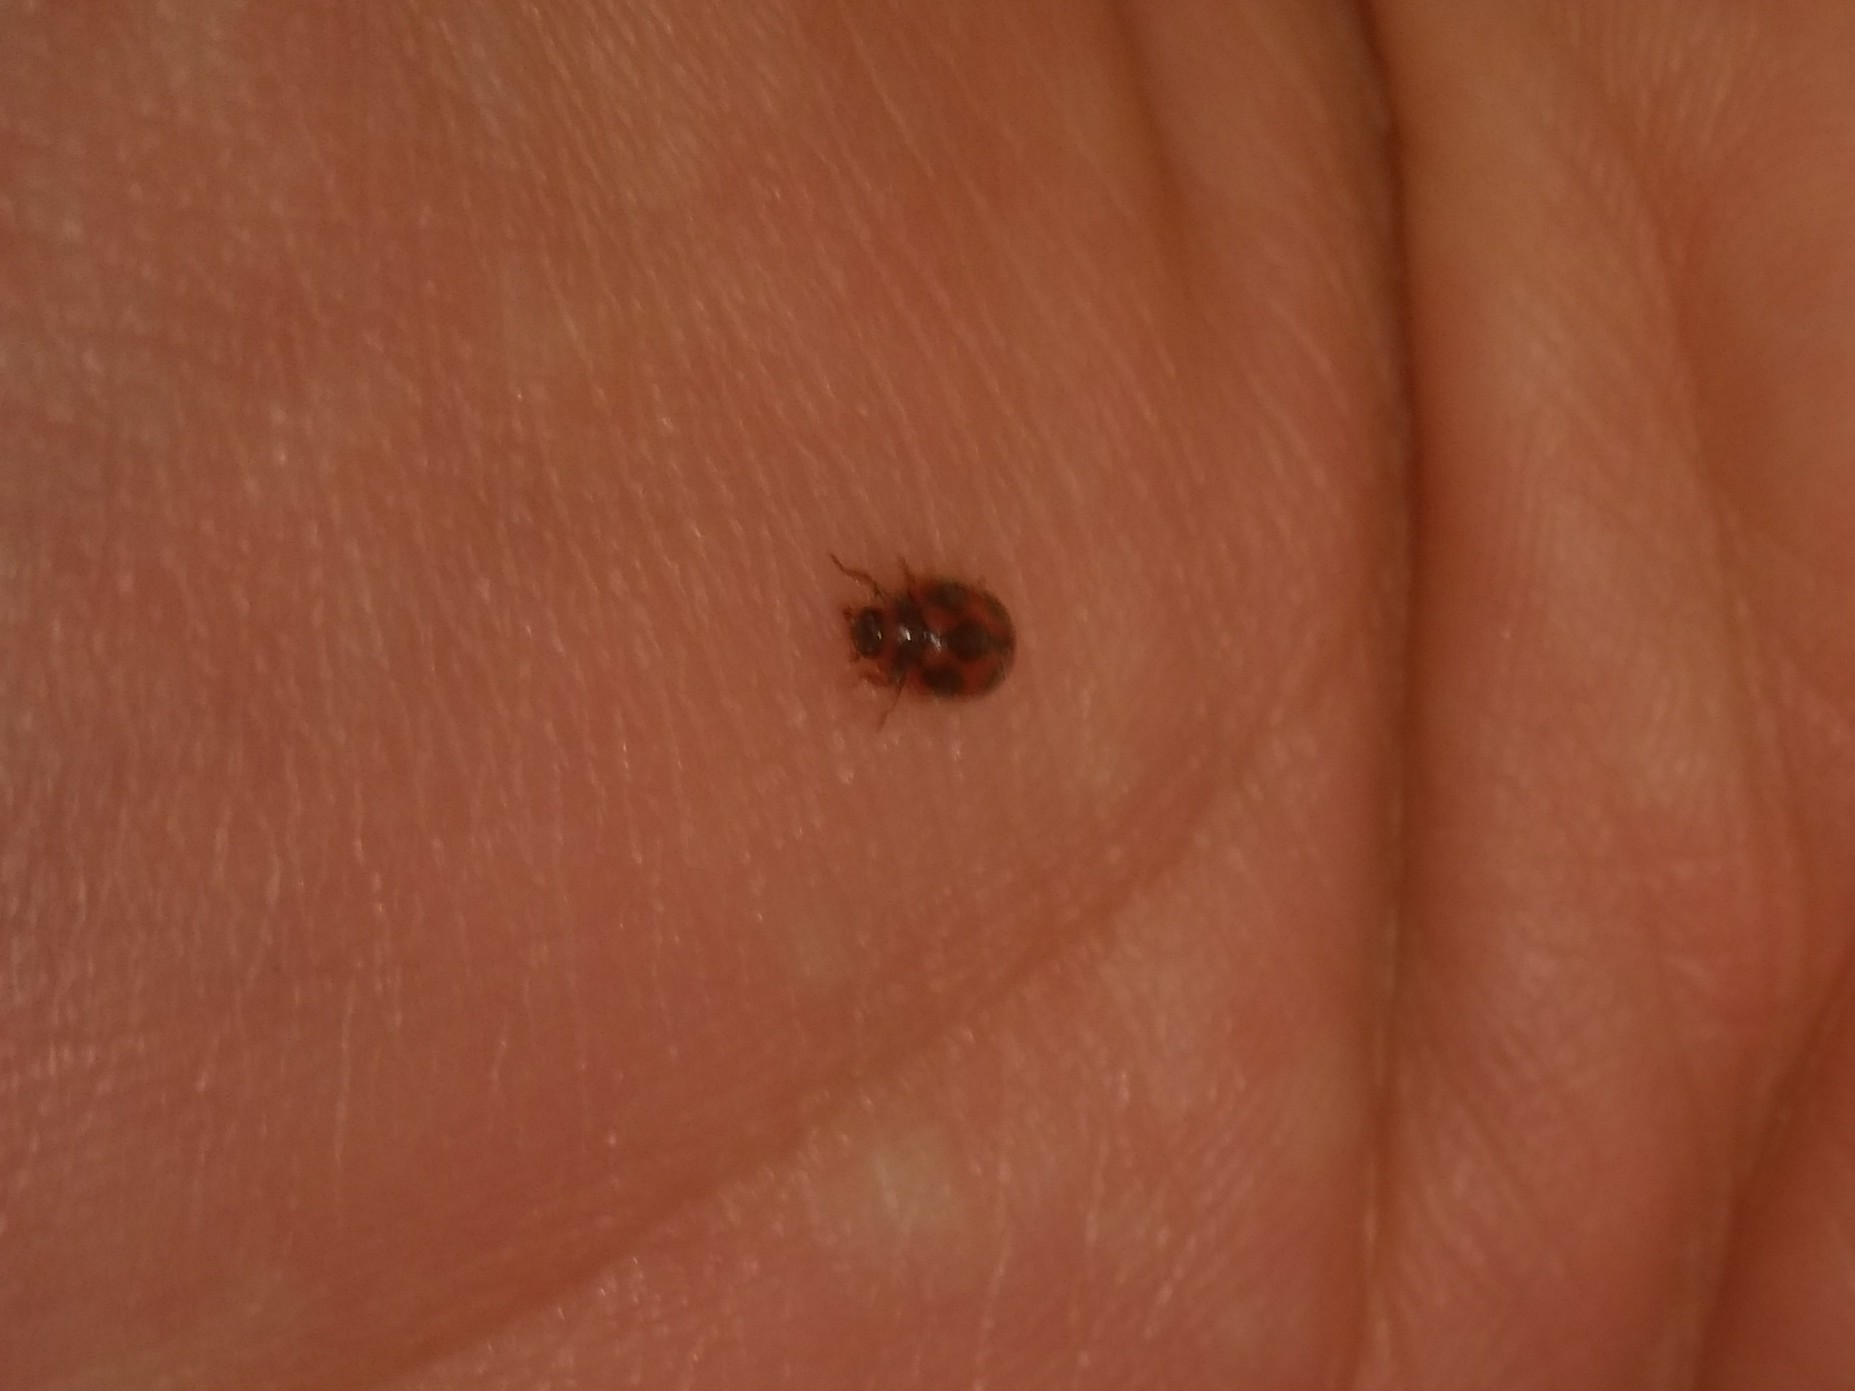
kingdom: Animalia
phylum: Arthropoda
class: Insecta
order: Coleoptera
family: Coccinellidae
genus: Novius
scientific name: Novius cardinalis
